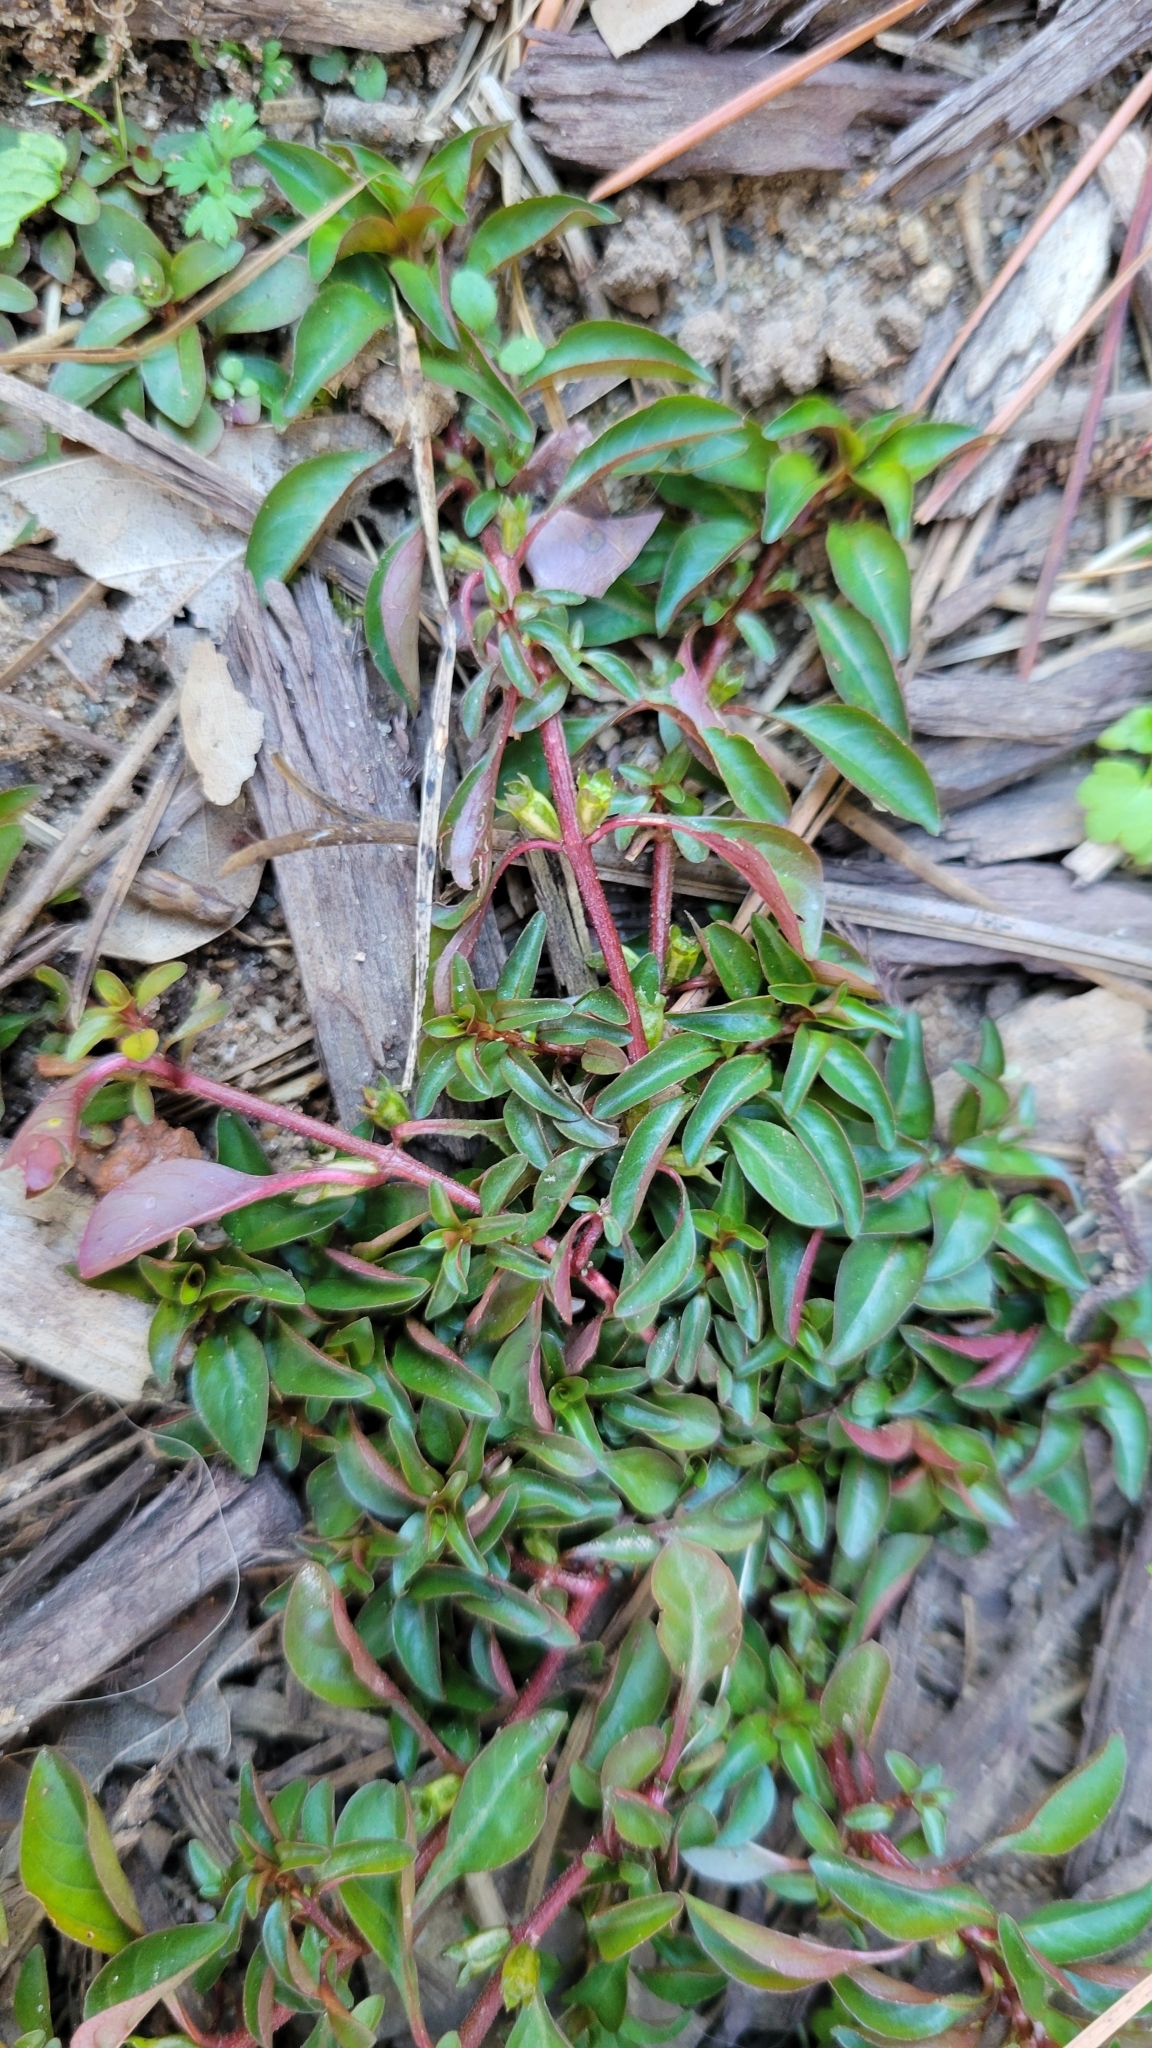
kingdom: Plantae
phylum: Tracheophyta
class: Magnoliopsida
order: Myrtales
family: Onagraceae
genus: Ludwigia
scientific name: Ludwigia repens
